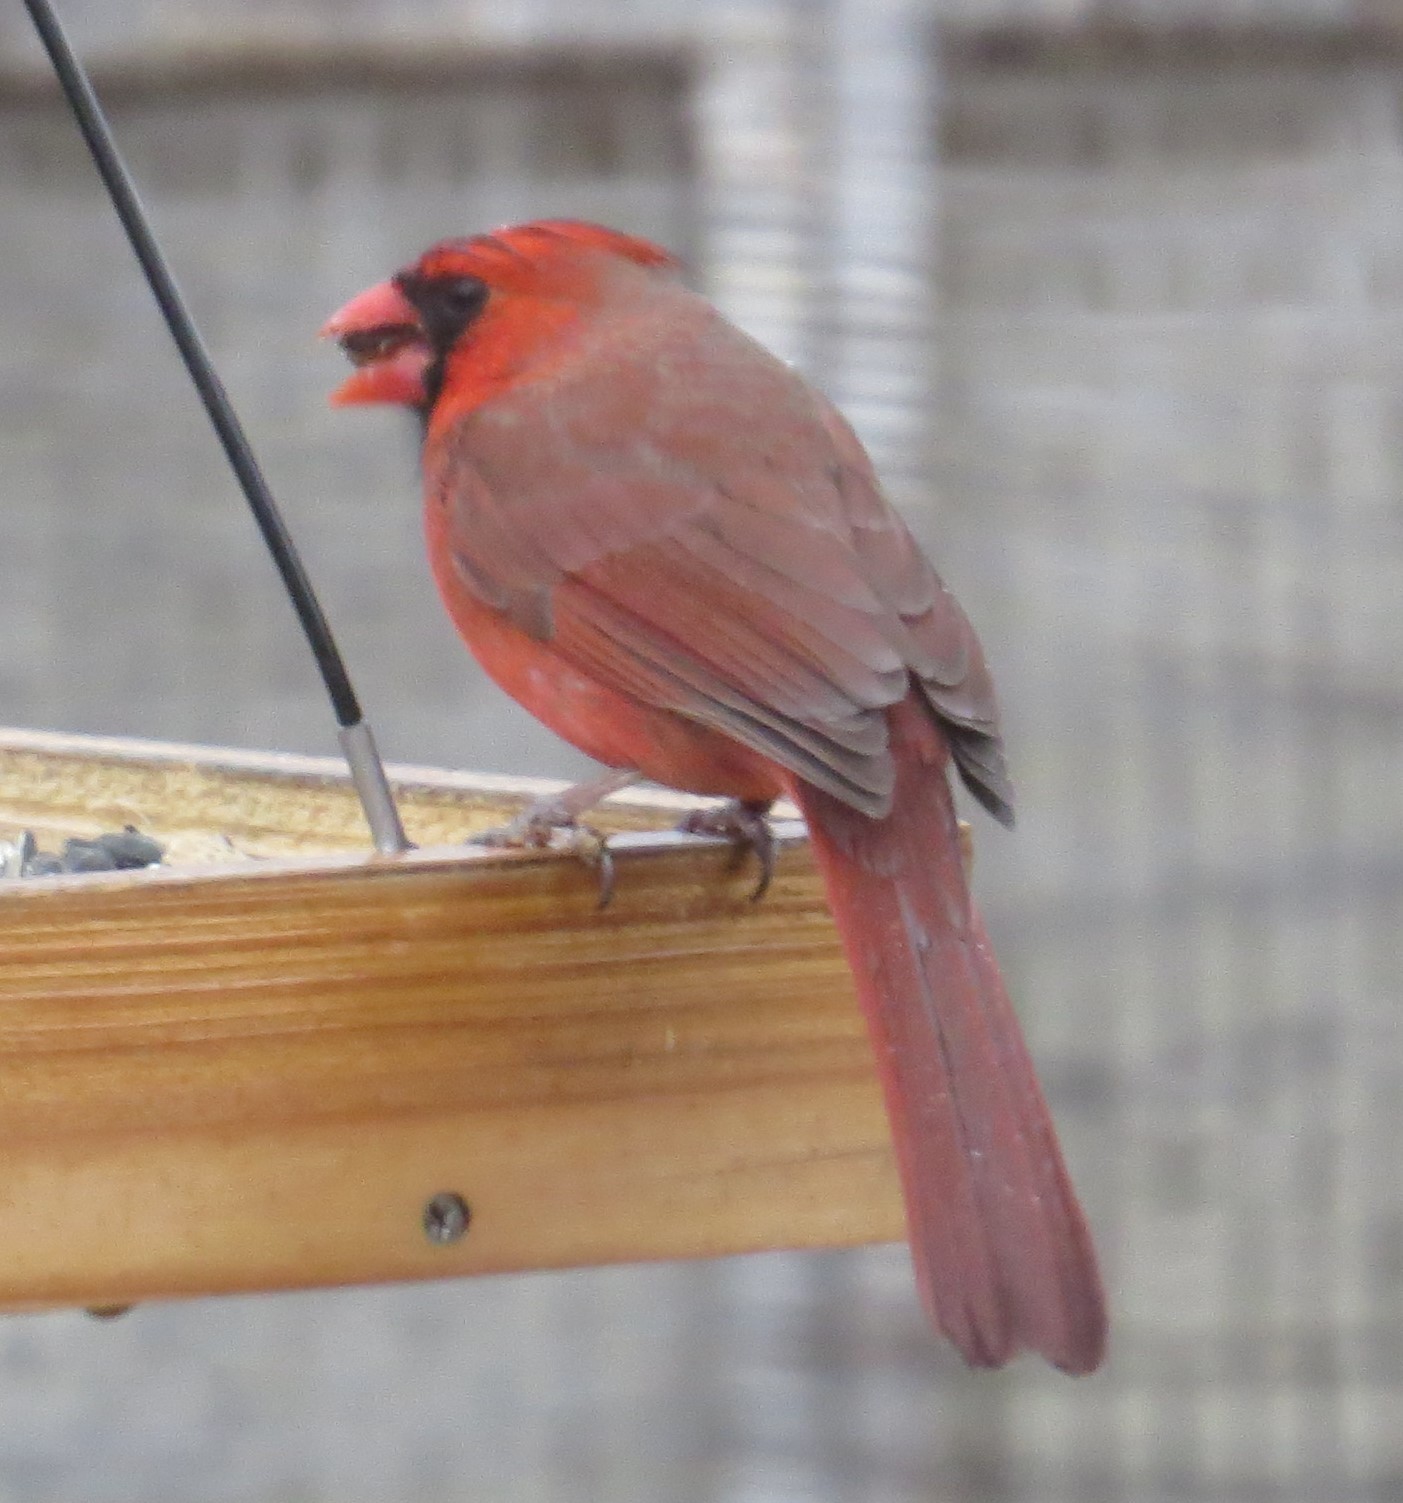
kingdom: Animalia
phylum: Chordata
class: Aves
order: Passeriformes
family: Cardinalidae
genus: Cardinalis
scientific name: Cardinalis cardinalis
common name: Northern cardinal
